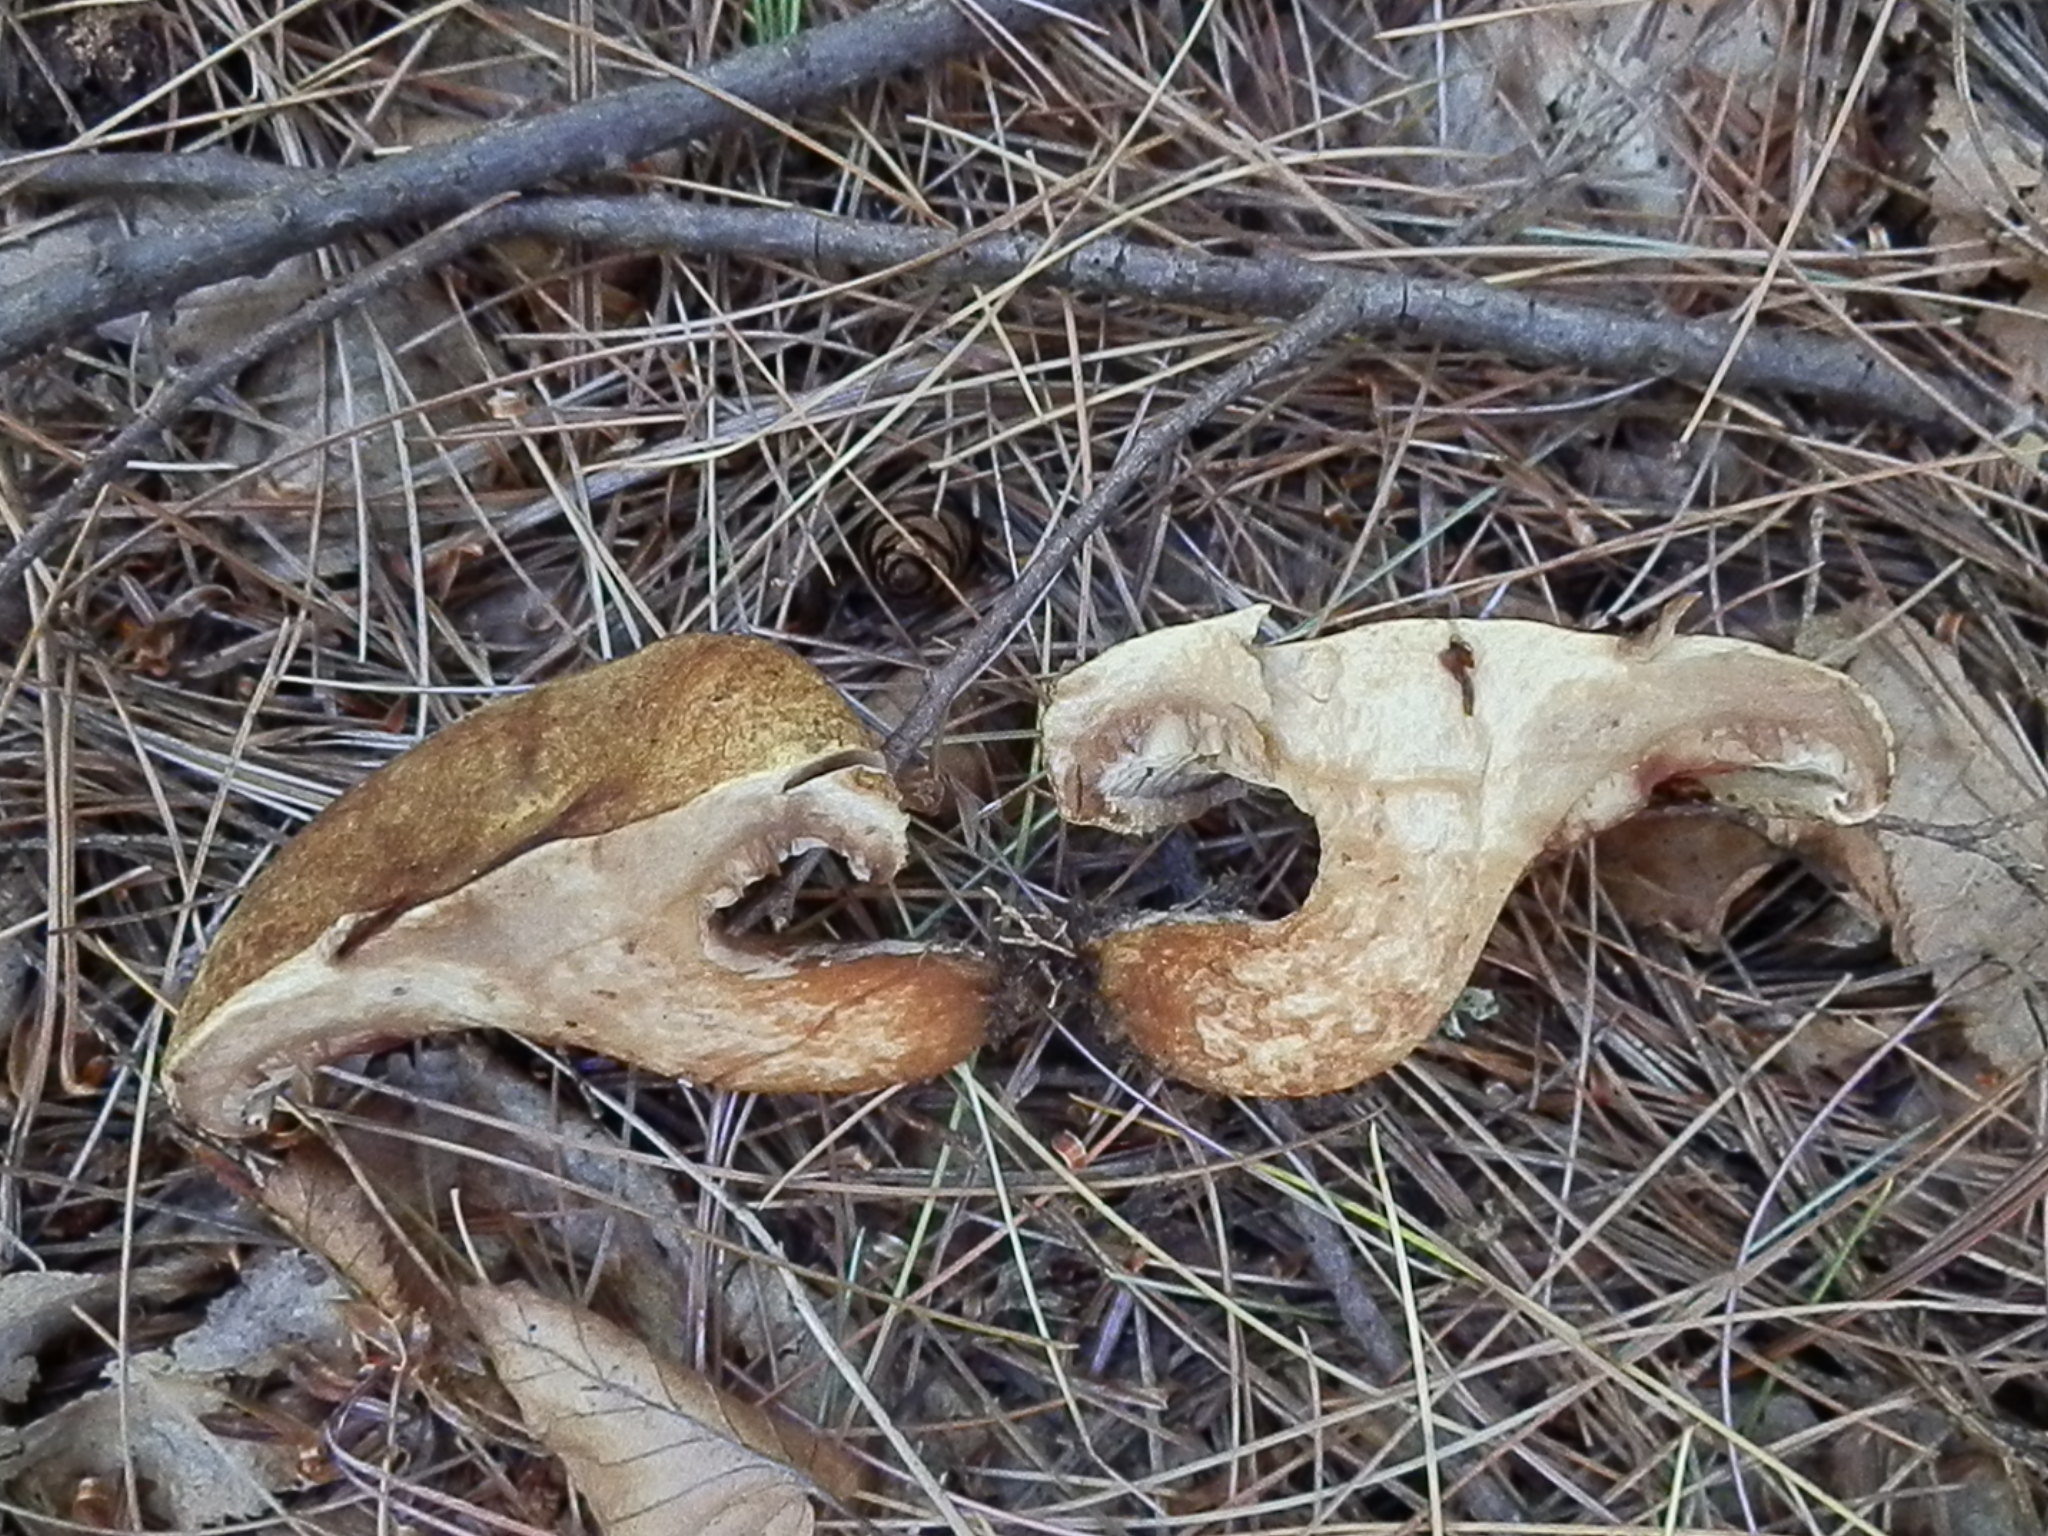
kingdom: Fungi
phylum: Basidiomycota
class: Agaricomycetes
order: Boletales
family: Paxillaceae
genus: Paxillus
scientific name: Paxillus involutus
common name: Brown roll rim
